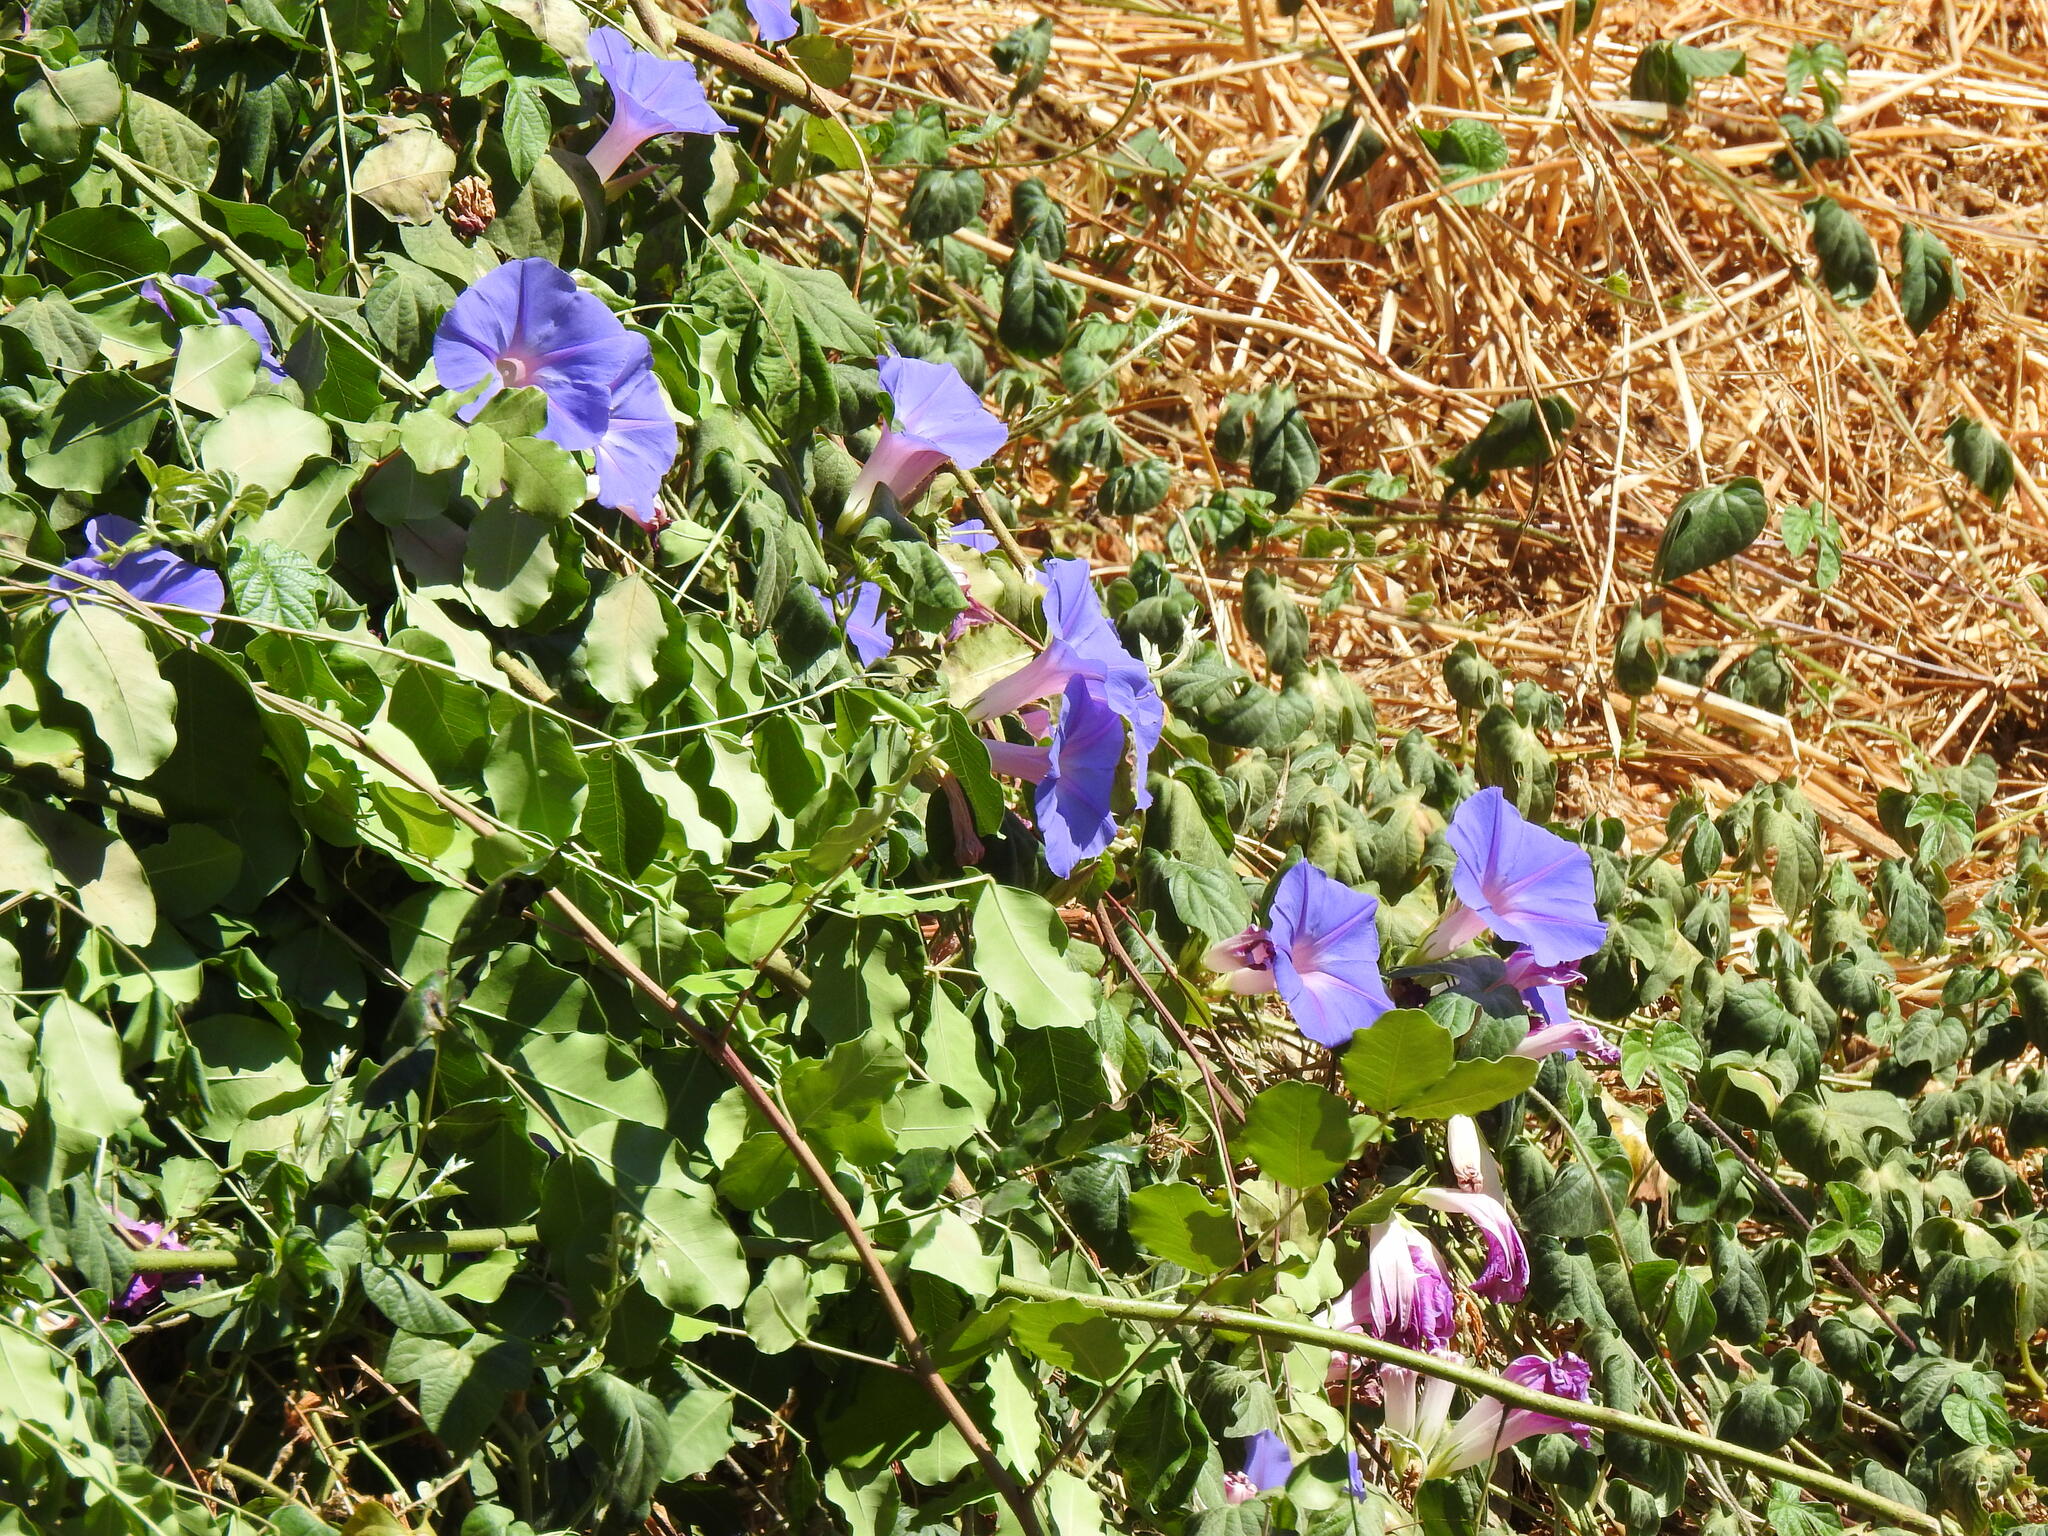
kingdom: Plantae
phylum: Tracheophyta
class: Magnoliopsida
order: Solanales
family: Convolvulaceae
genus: Ipomoea
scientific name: Ipomoea indica
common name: Blue dawnflower
